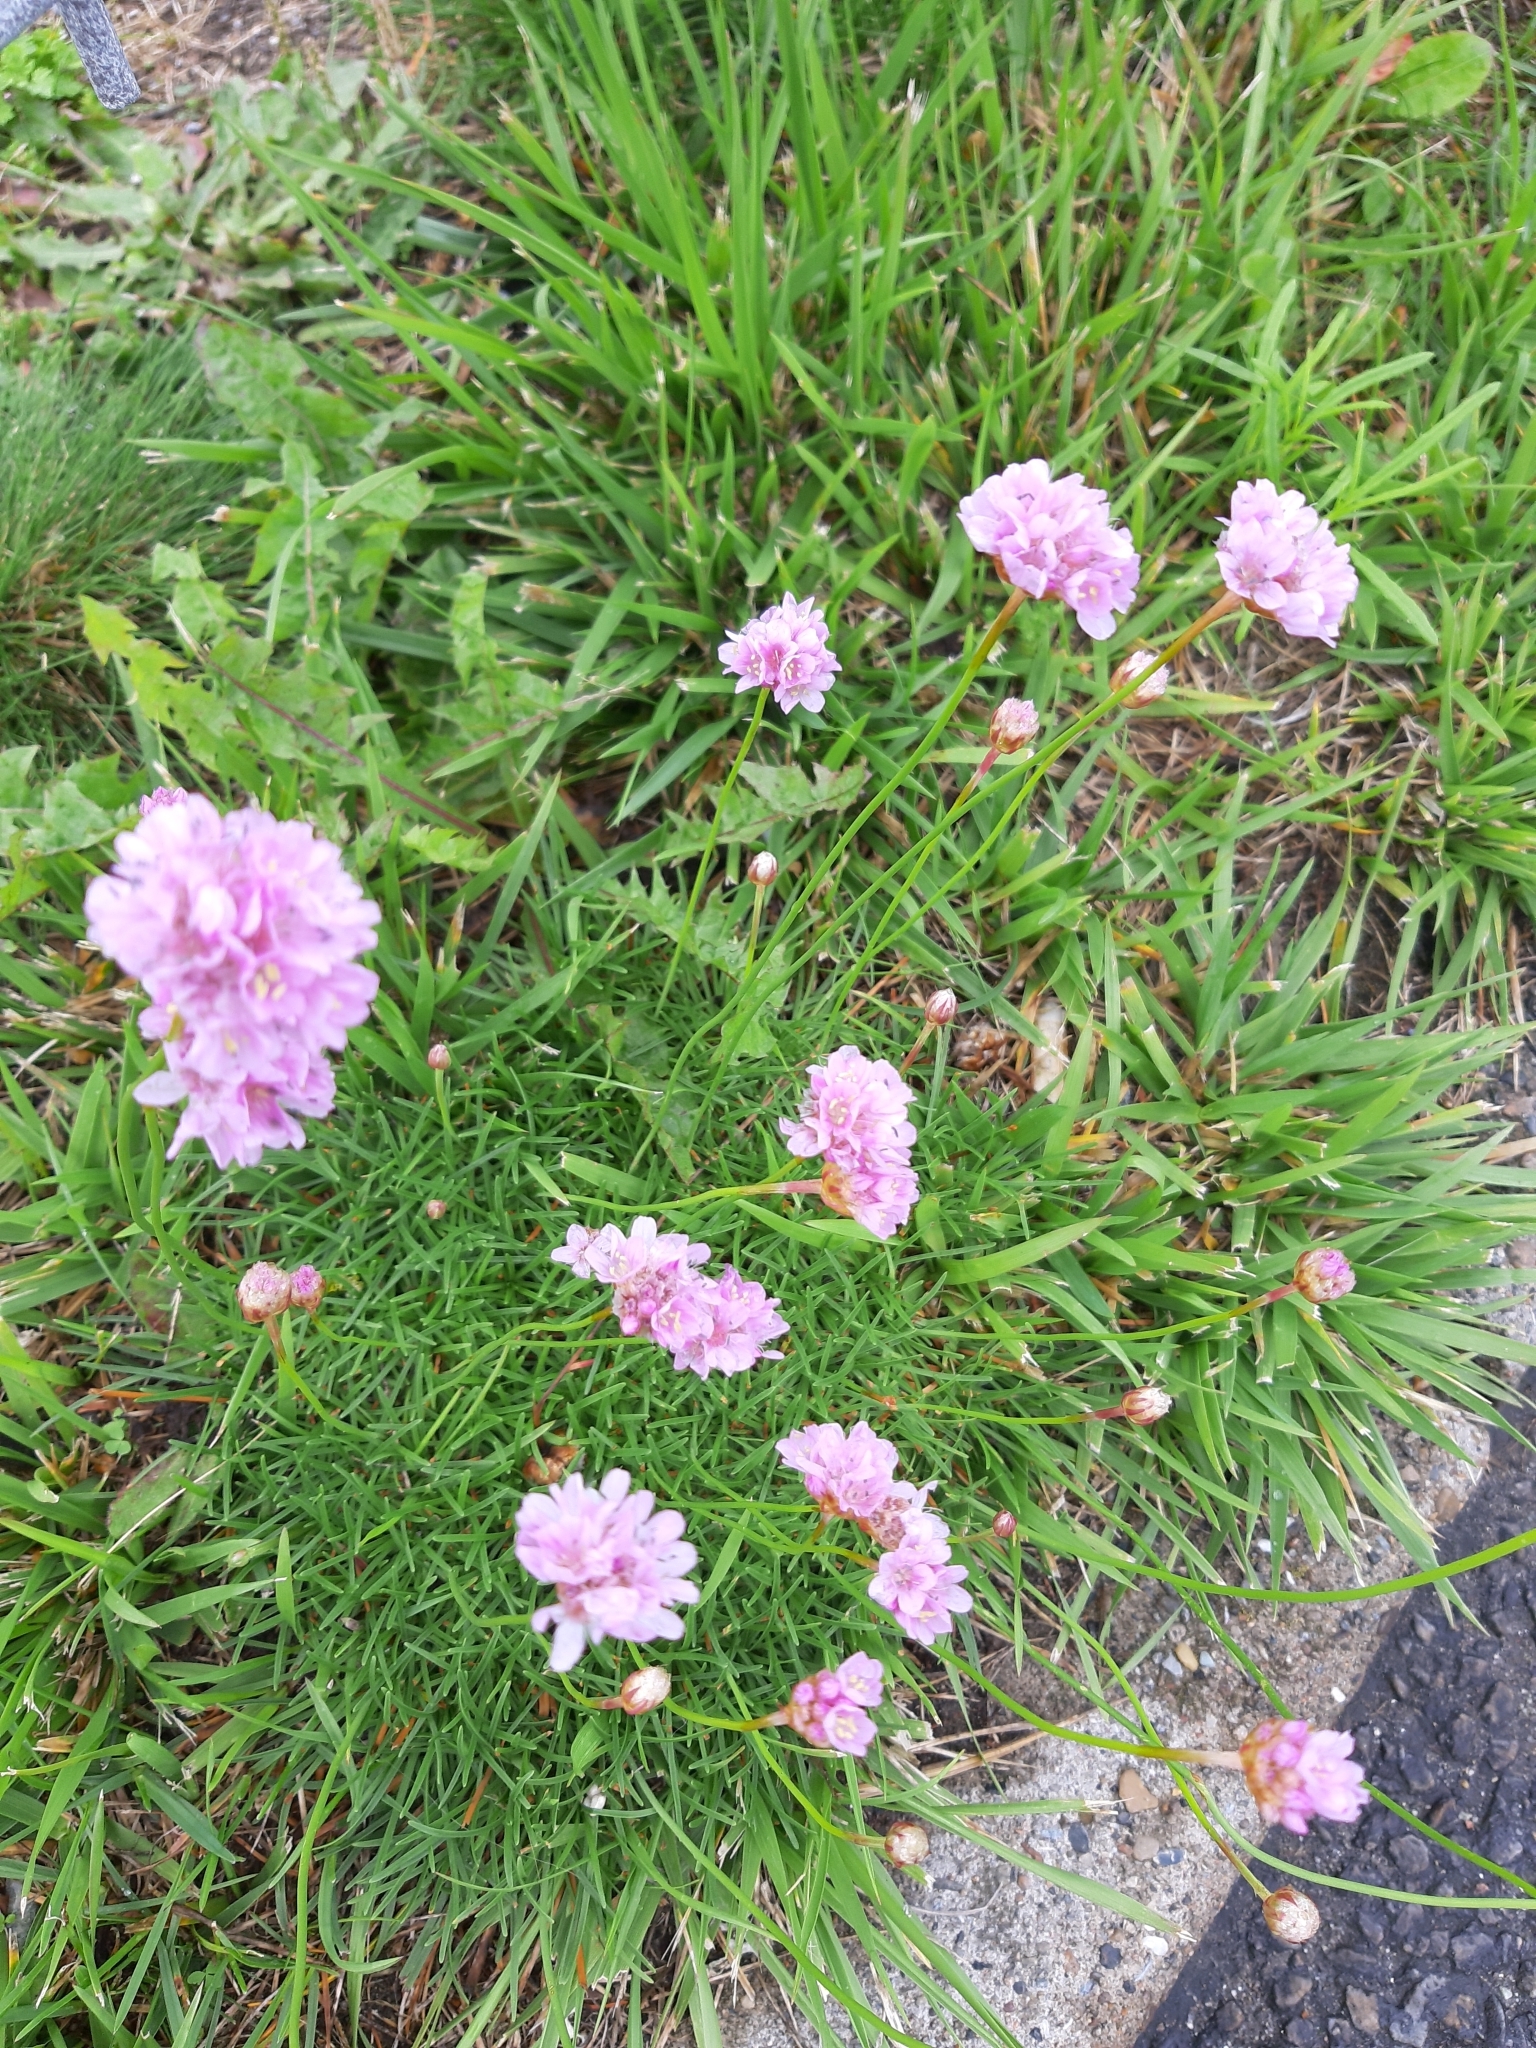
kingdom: Plantae
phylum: Tracheophyta
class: Magnoliopsida
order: Caryophyllales
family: Plumbaginaceae
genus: Armeria
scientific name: Armeria maritima
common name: Thrift
